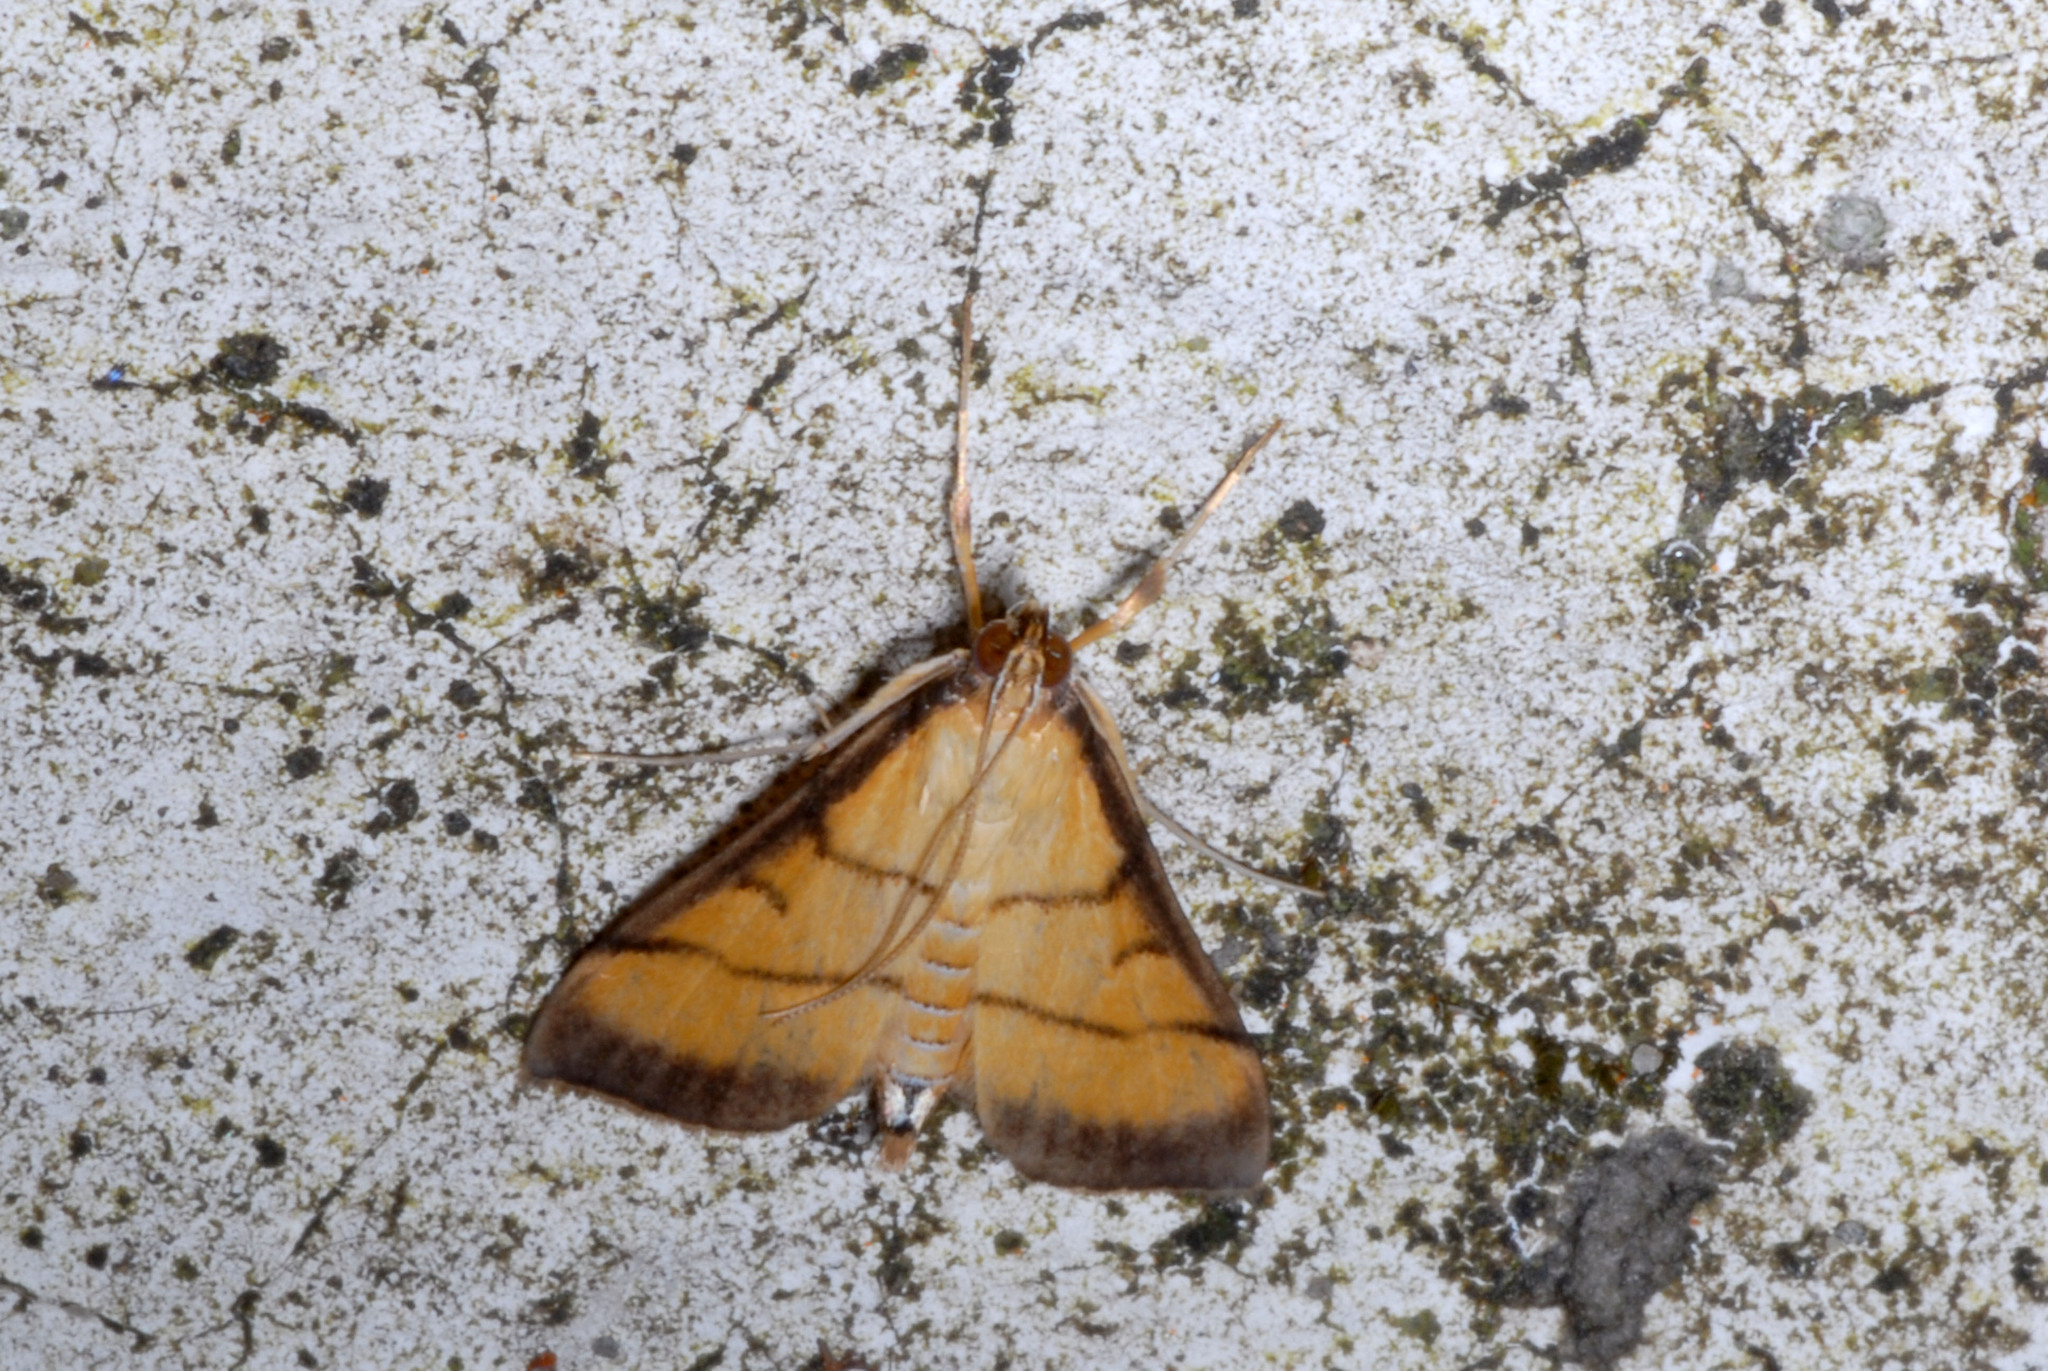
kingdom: Animalia
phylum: Arthropoda
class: Insecta
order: Lepidoptera
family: Crambidae
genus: Cnaphalocrocis
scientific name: Cnaphalocrocis medinalis
